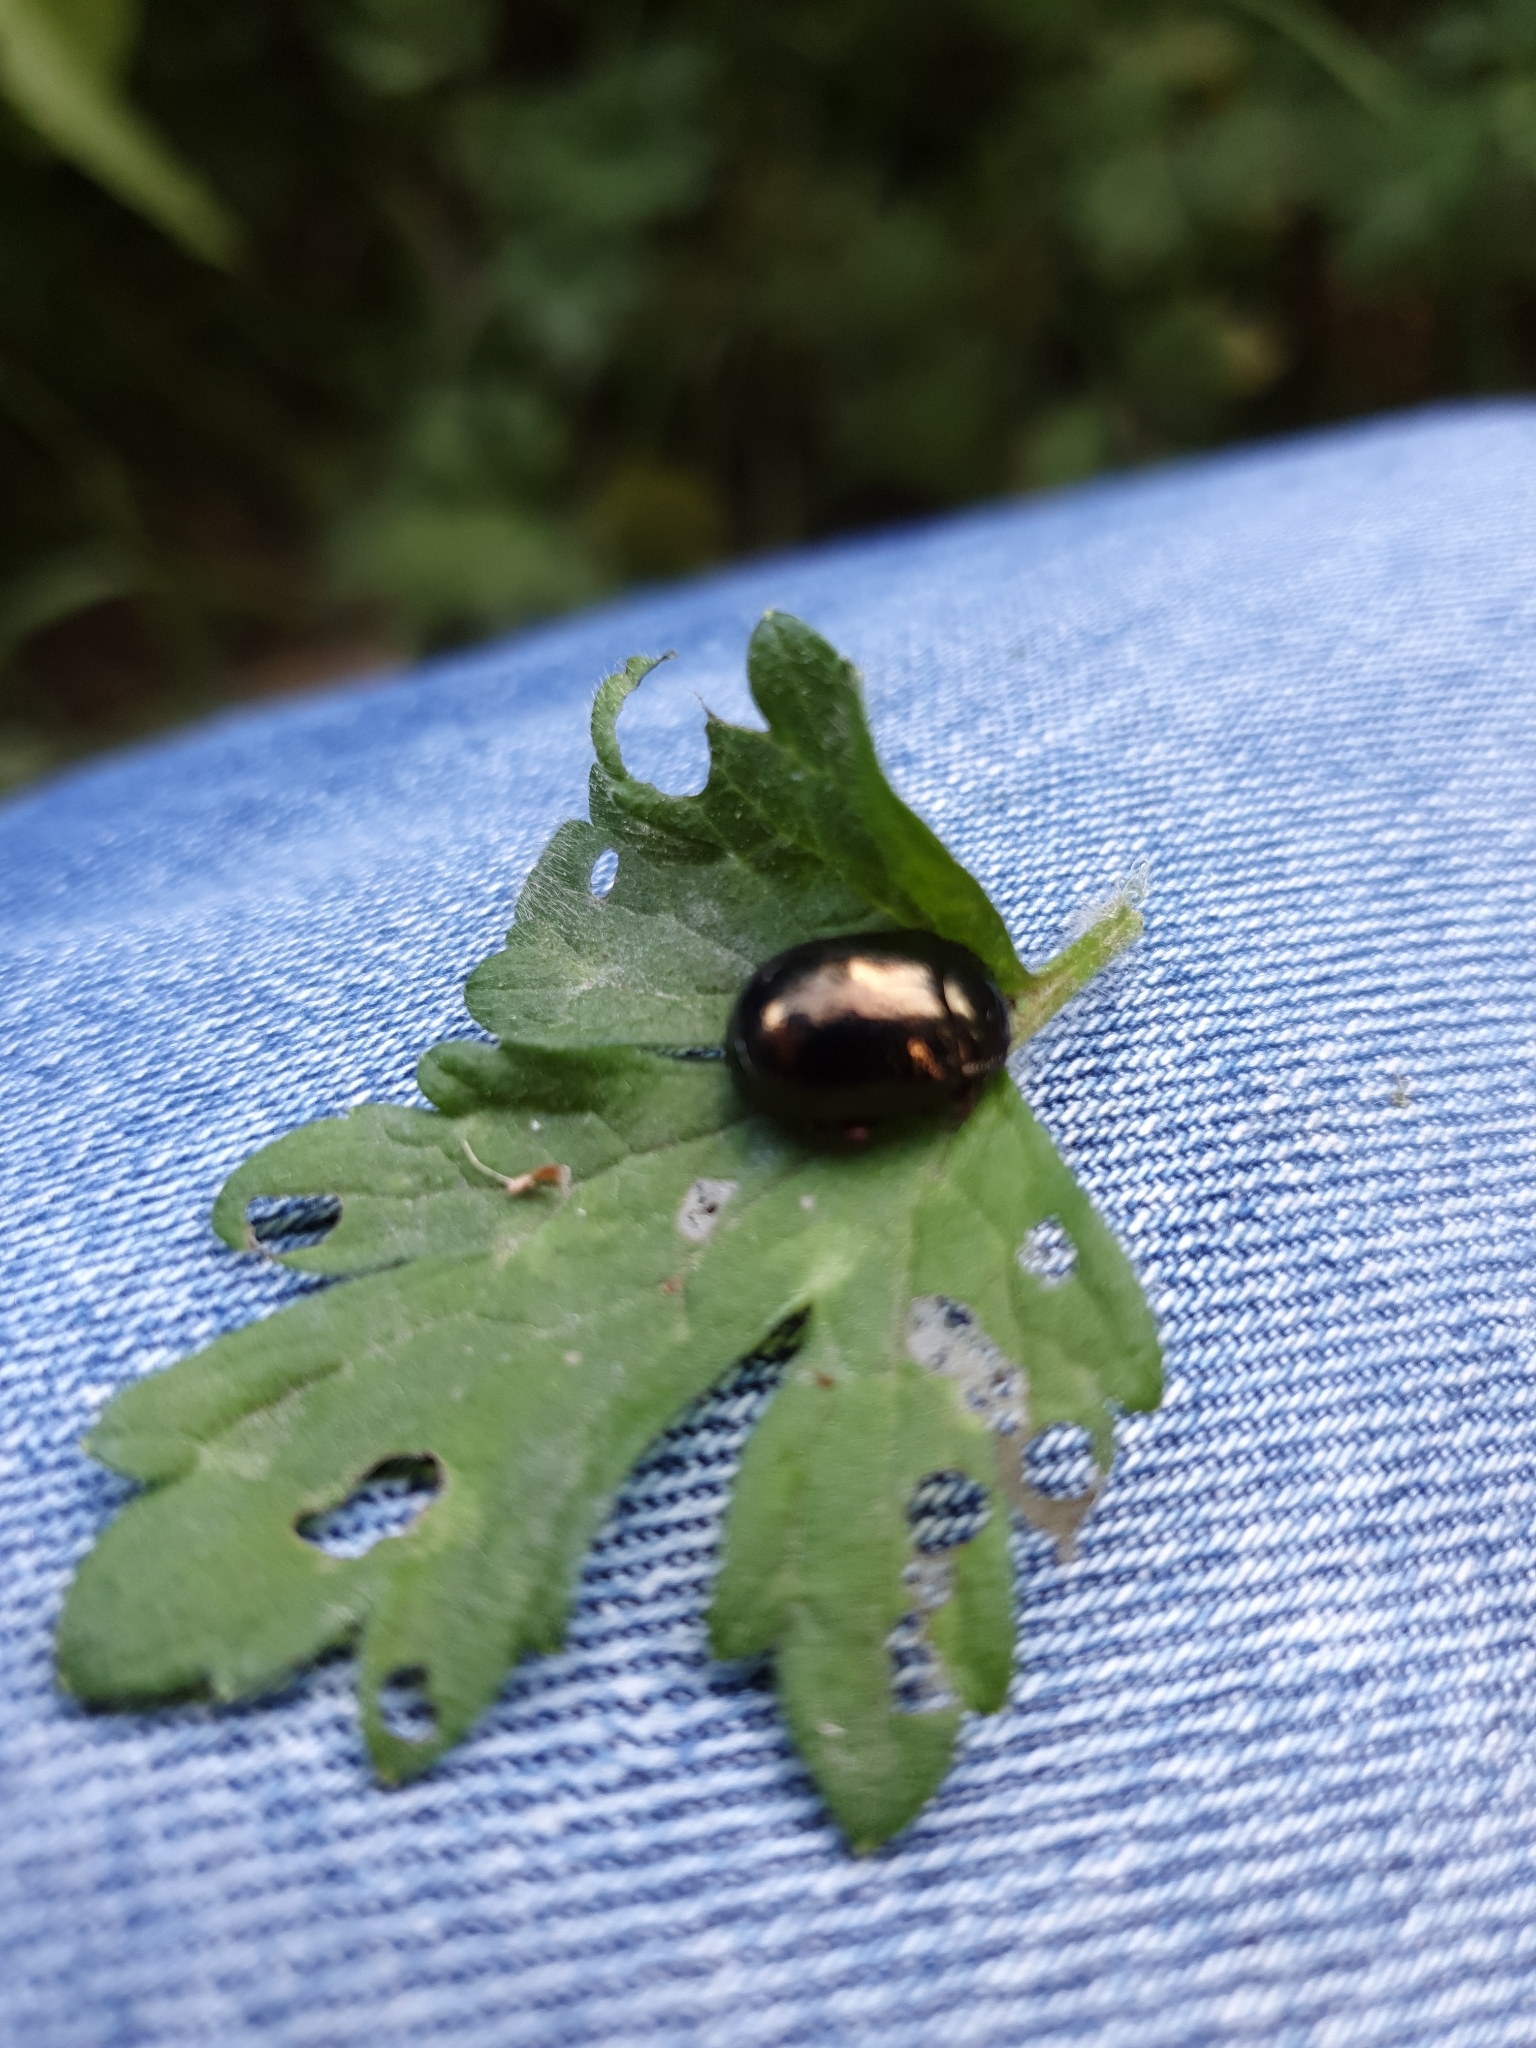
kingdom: Animalia
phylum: Arthropoda
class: Insecta
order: Coleoptera
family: Chrysomelidae
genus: Chrysolina
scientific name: Chrysolina bankii
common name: Leaf beetle
